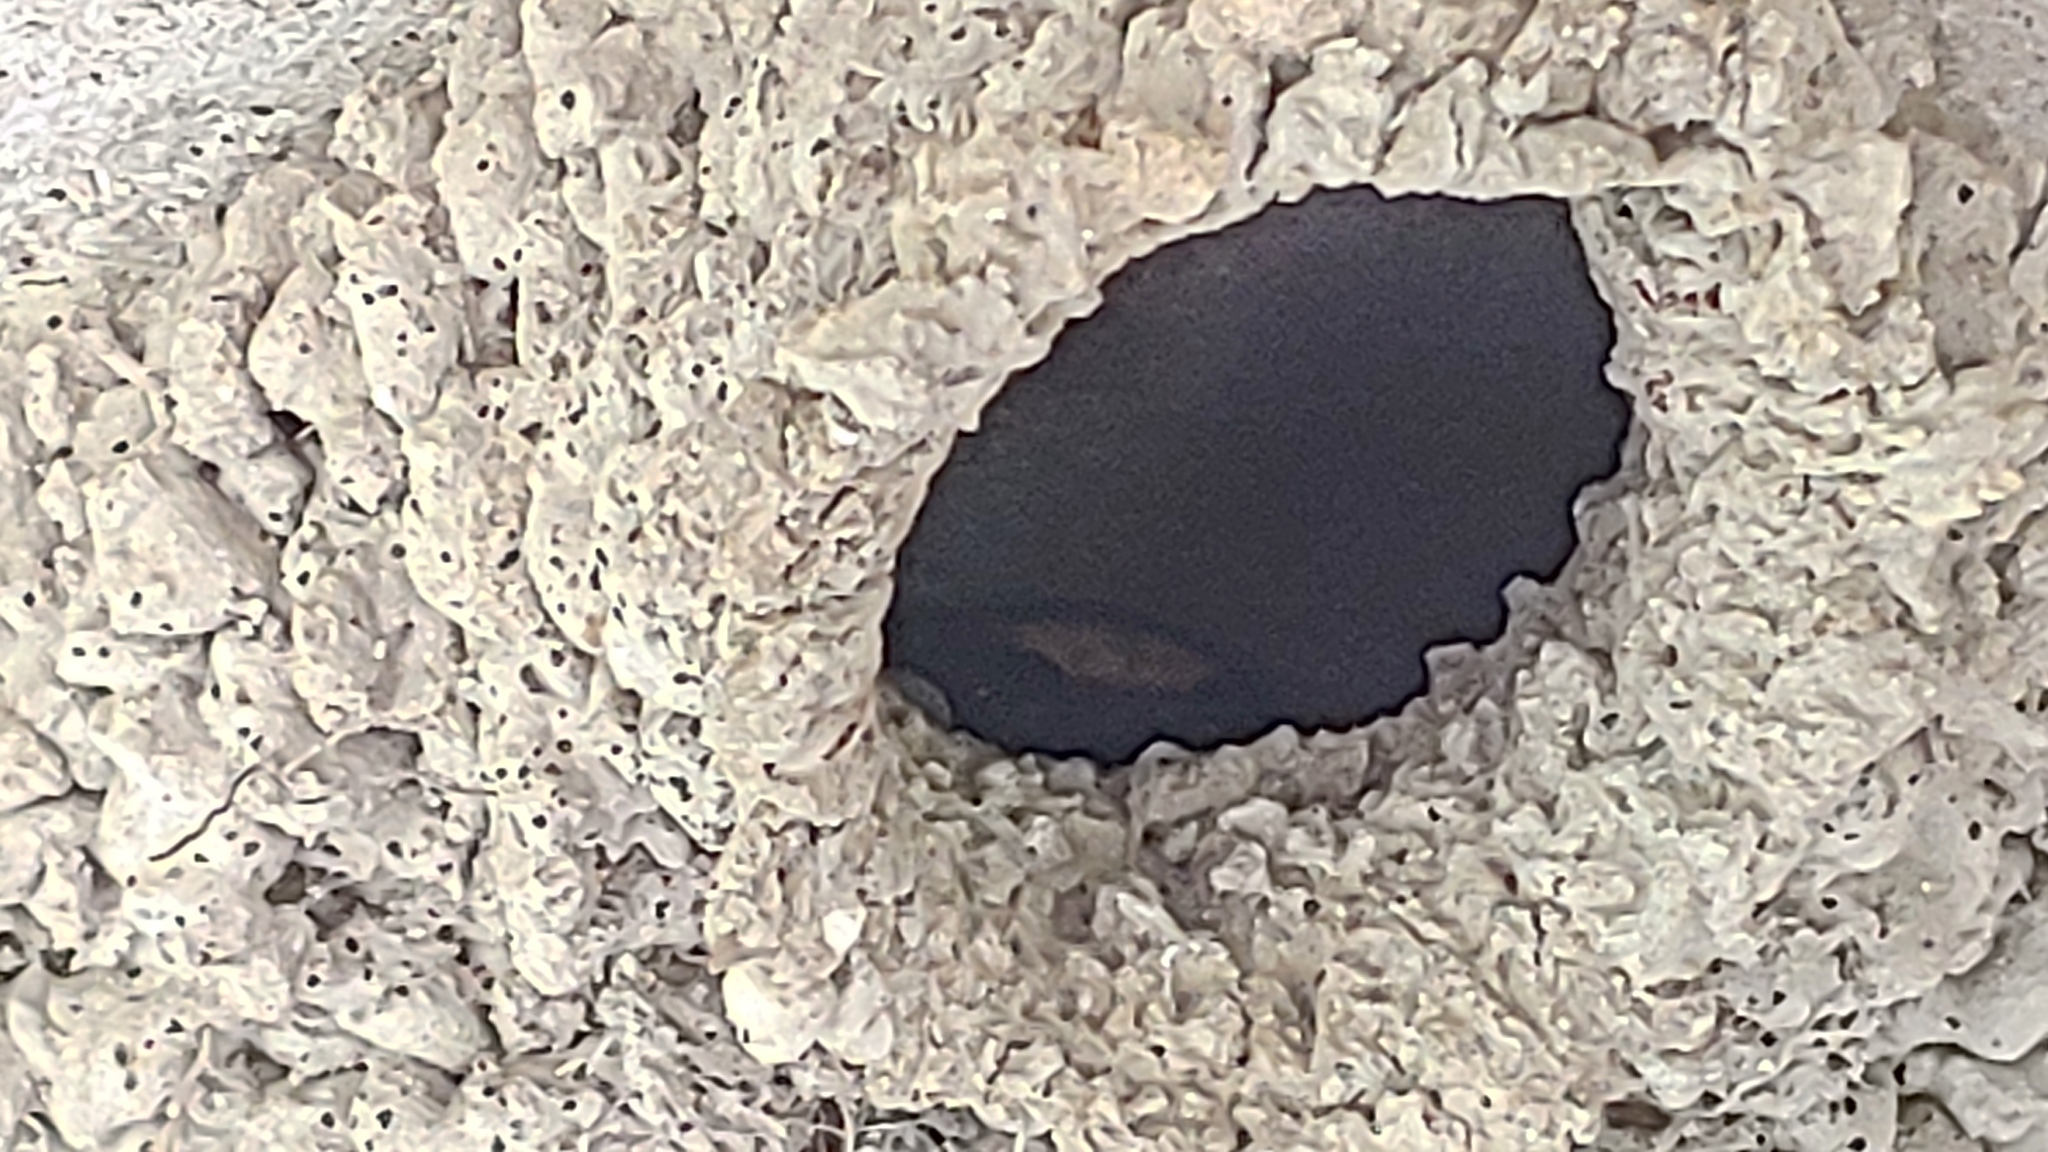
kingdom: Animalia
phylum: Chordata
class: Aves
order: Passeriformes
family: Hirundinidae
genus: Petrochelidon
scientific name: Petrochelidon pyrrhonota
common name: American cliff swallow
